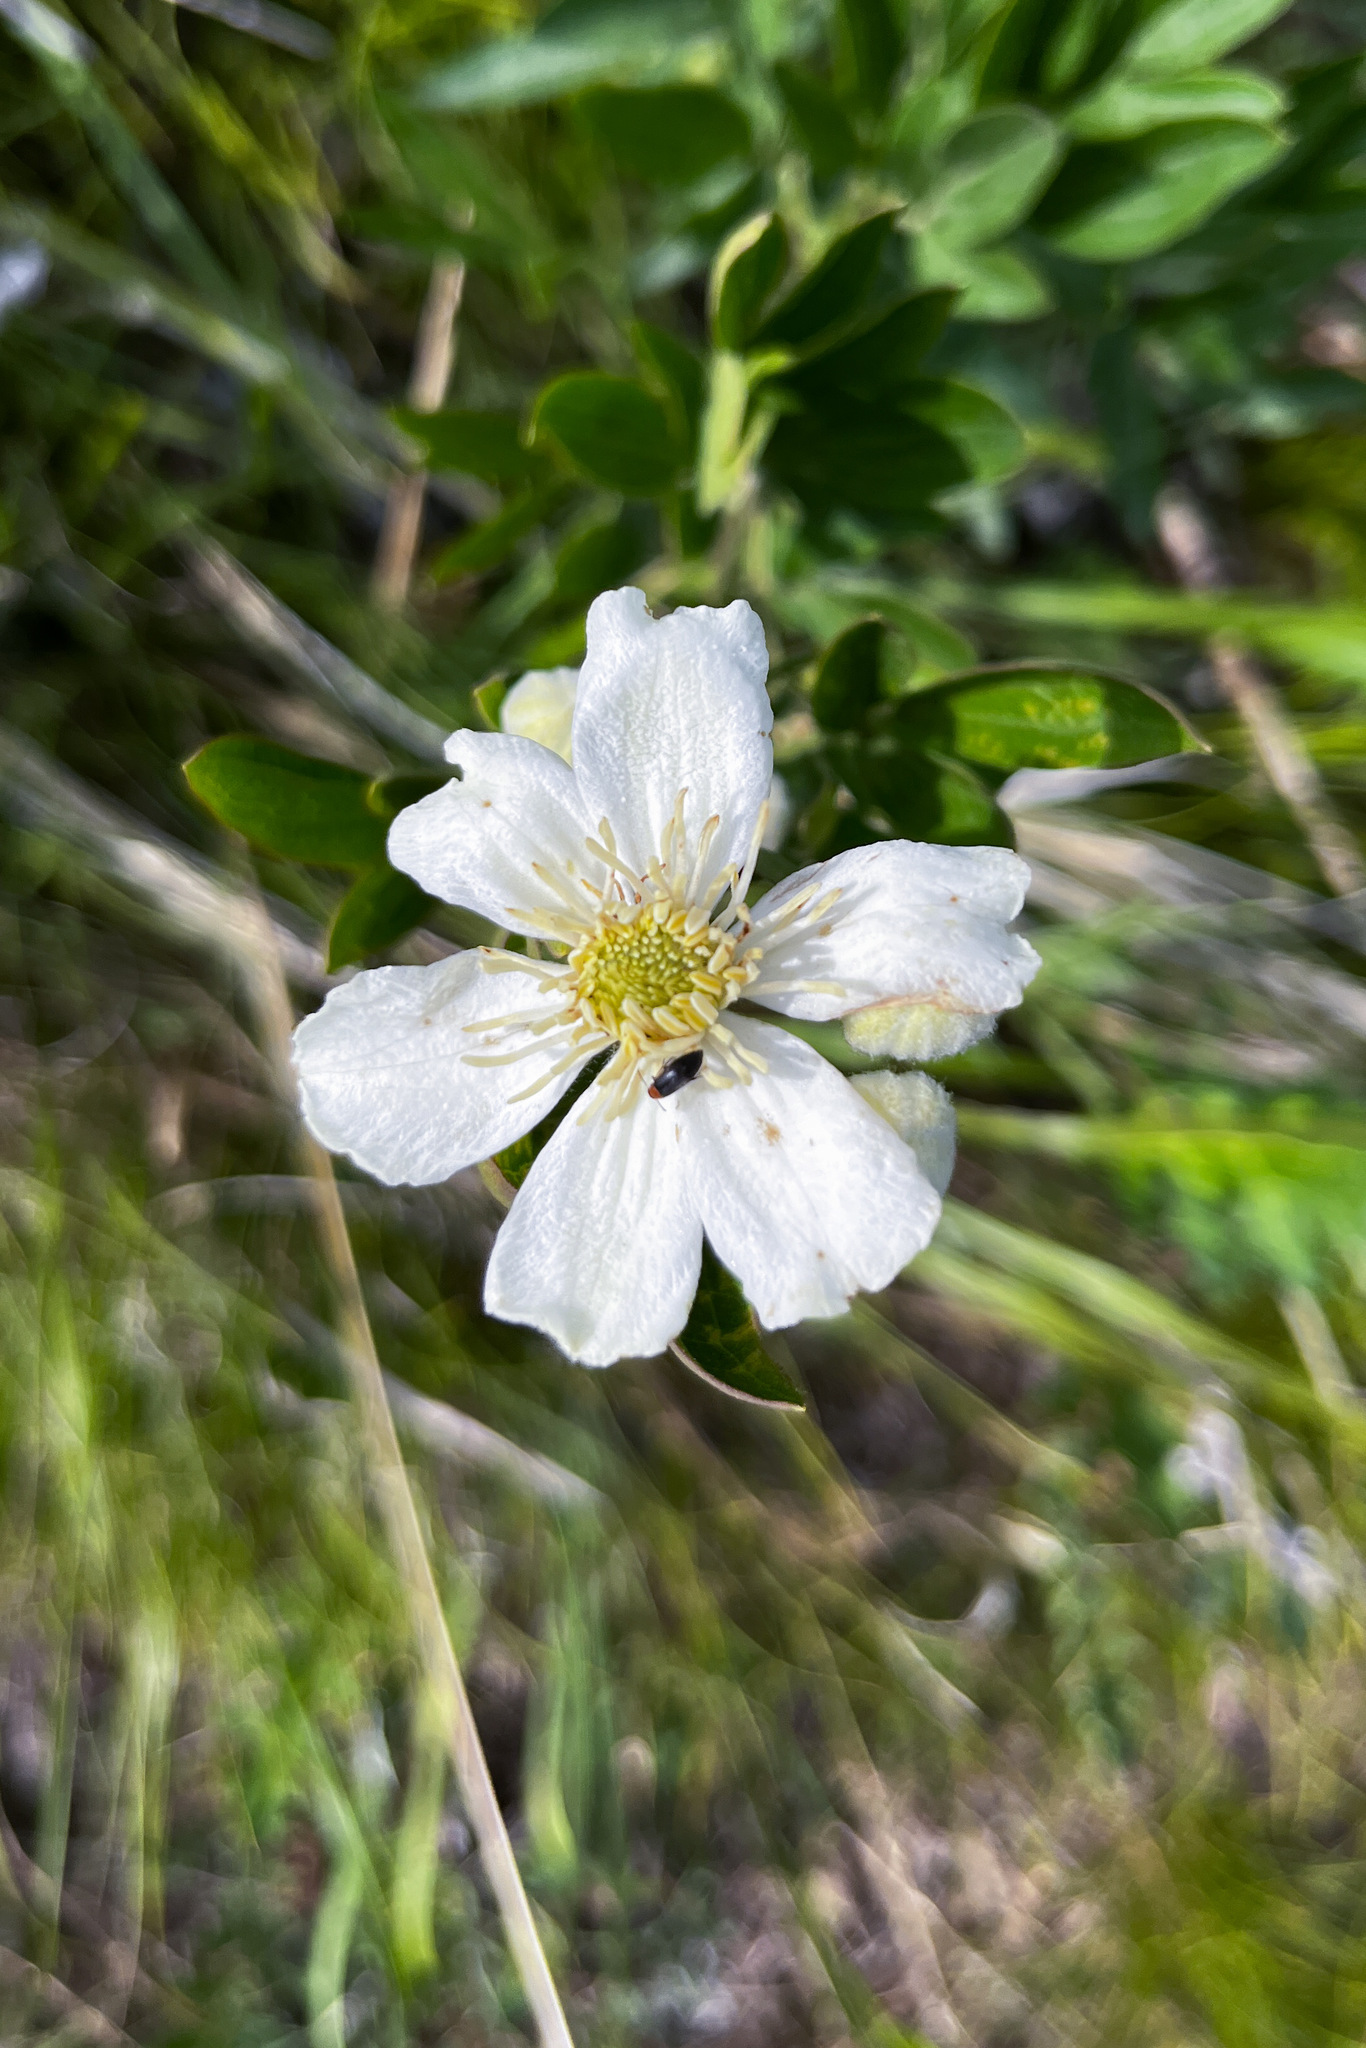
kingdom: Plantae
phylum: Tracheophyta
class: Magnoliopsida
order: Ranunculales
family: Ranunculaceae
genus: Clematis
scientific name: Clematis hexapetala
